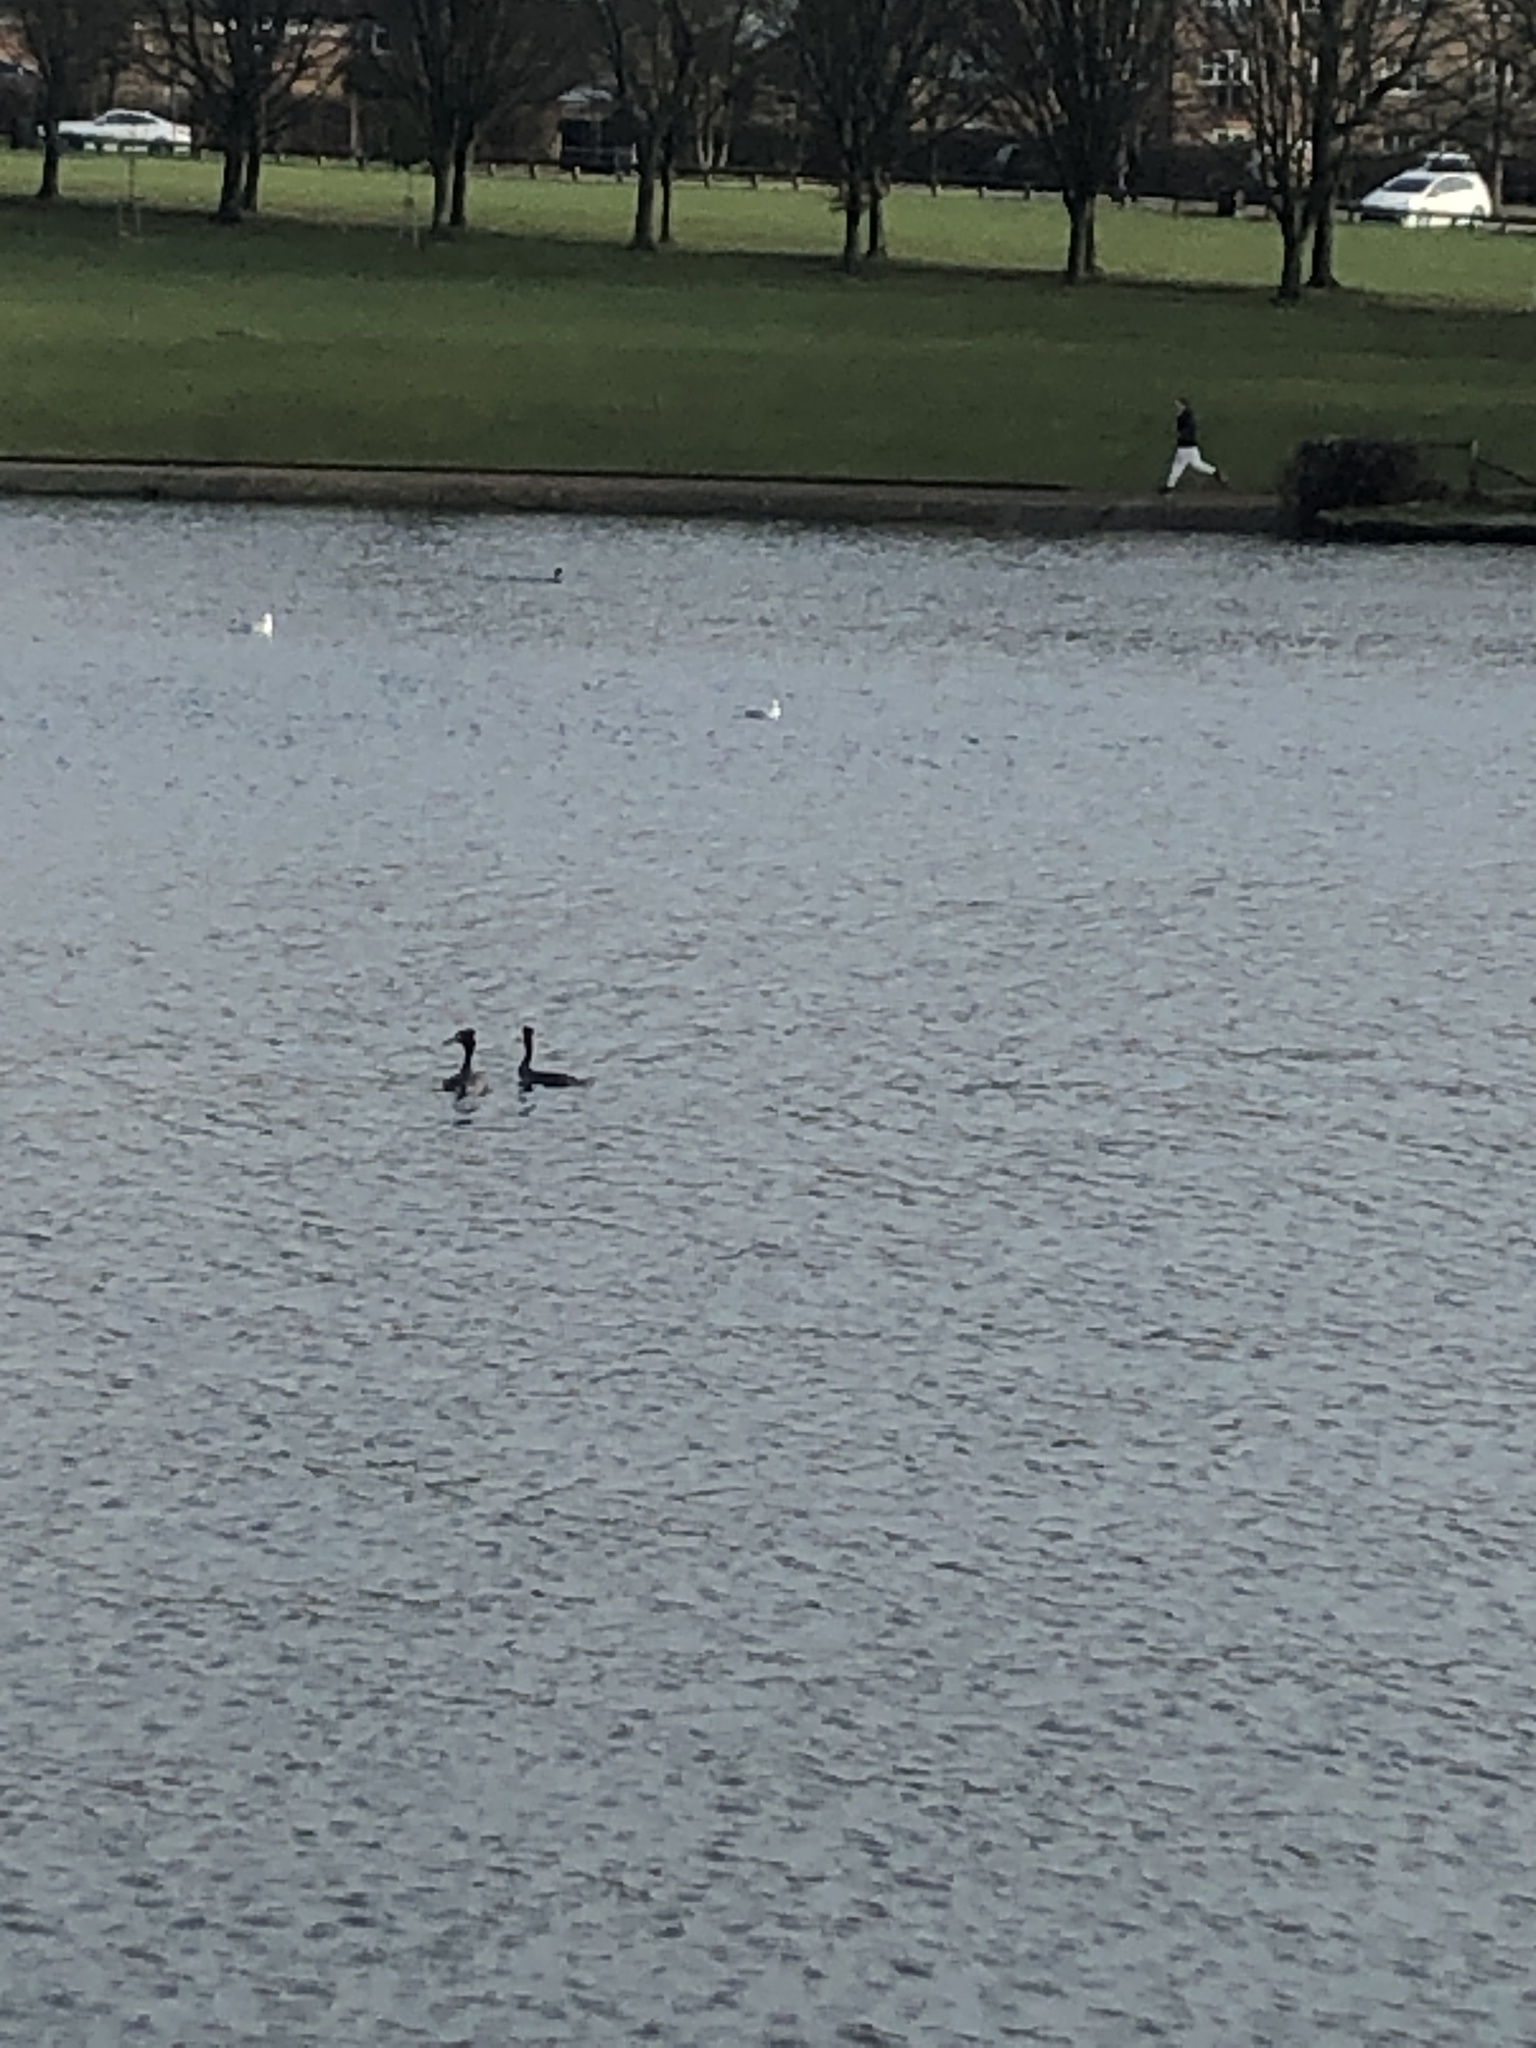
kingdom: Animalia
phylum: Chordata
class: Aves
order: Podicipediformes
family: Podicipedidae
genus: Podiceps
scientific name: Podiceps cristatus
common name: Great crested grebe
